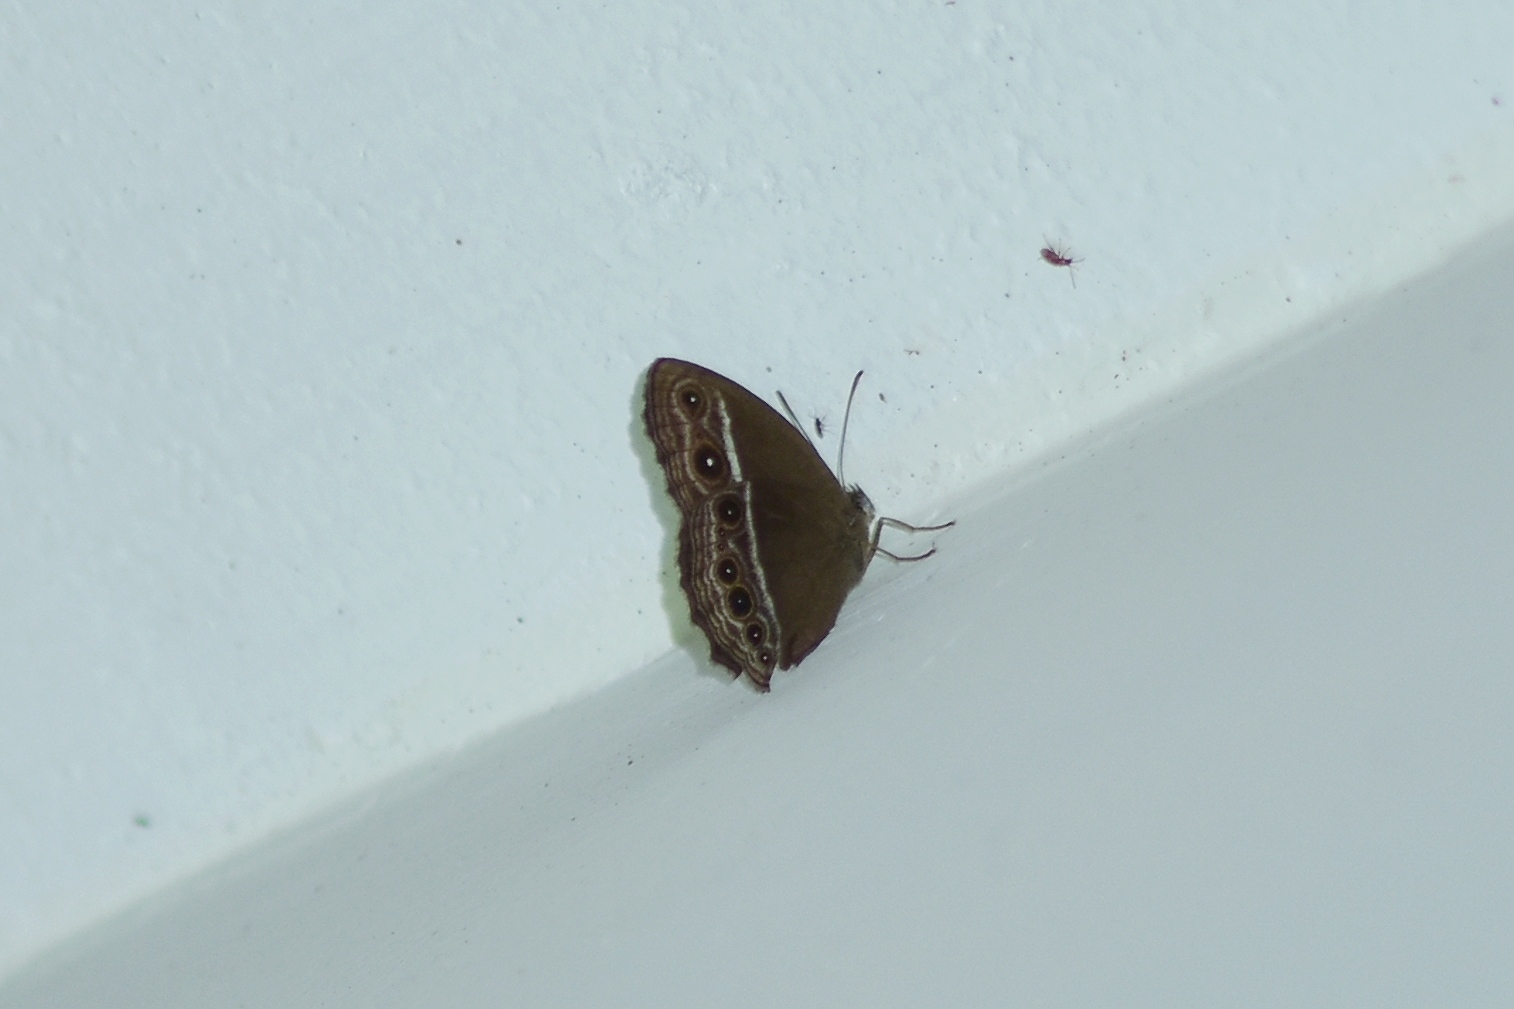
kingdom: Animalia
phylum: Arthropoda
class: Insecta
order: Lepidoptera
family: Nymphalidae
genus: Mycalesis
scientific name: Mycalesis
